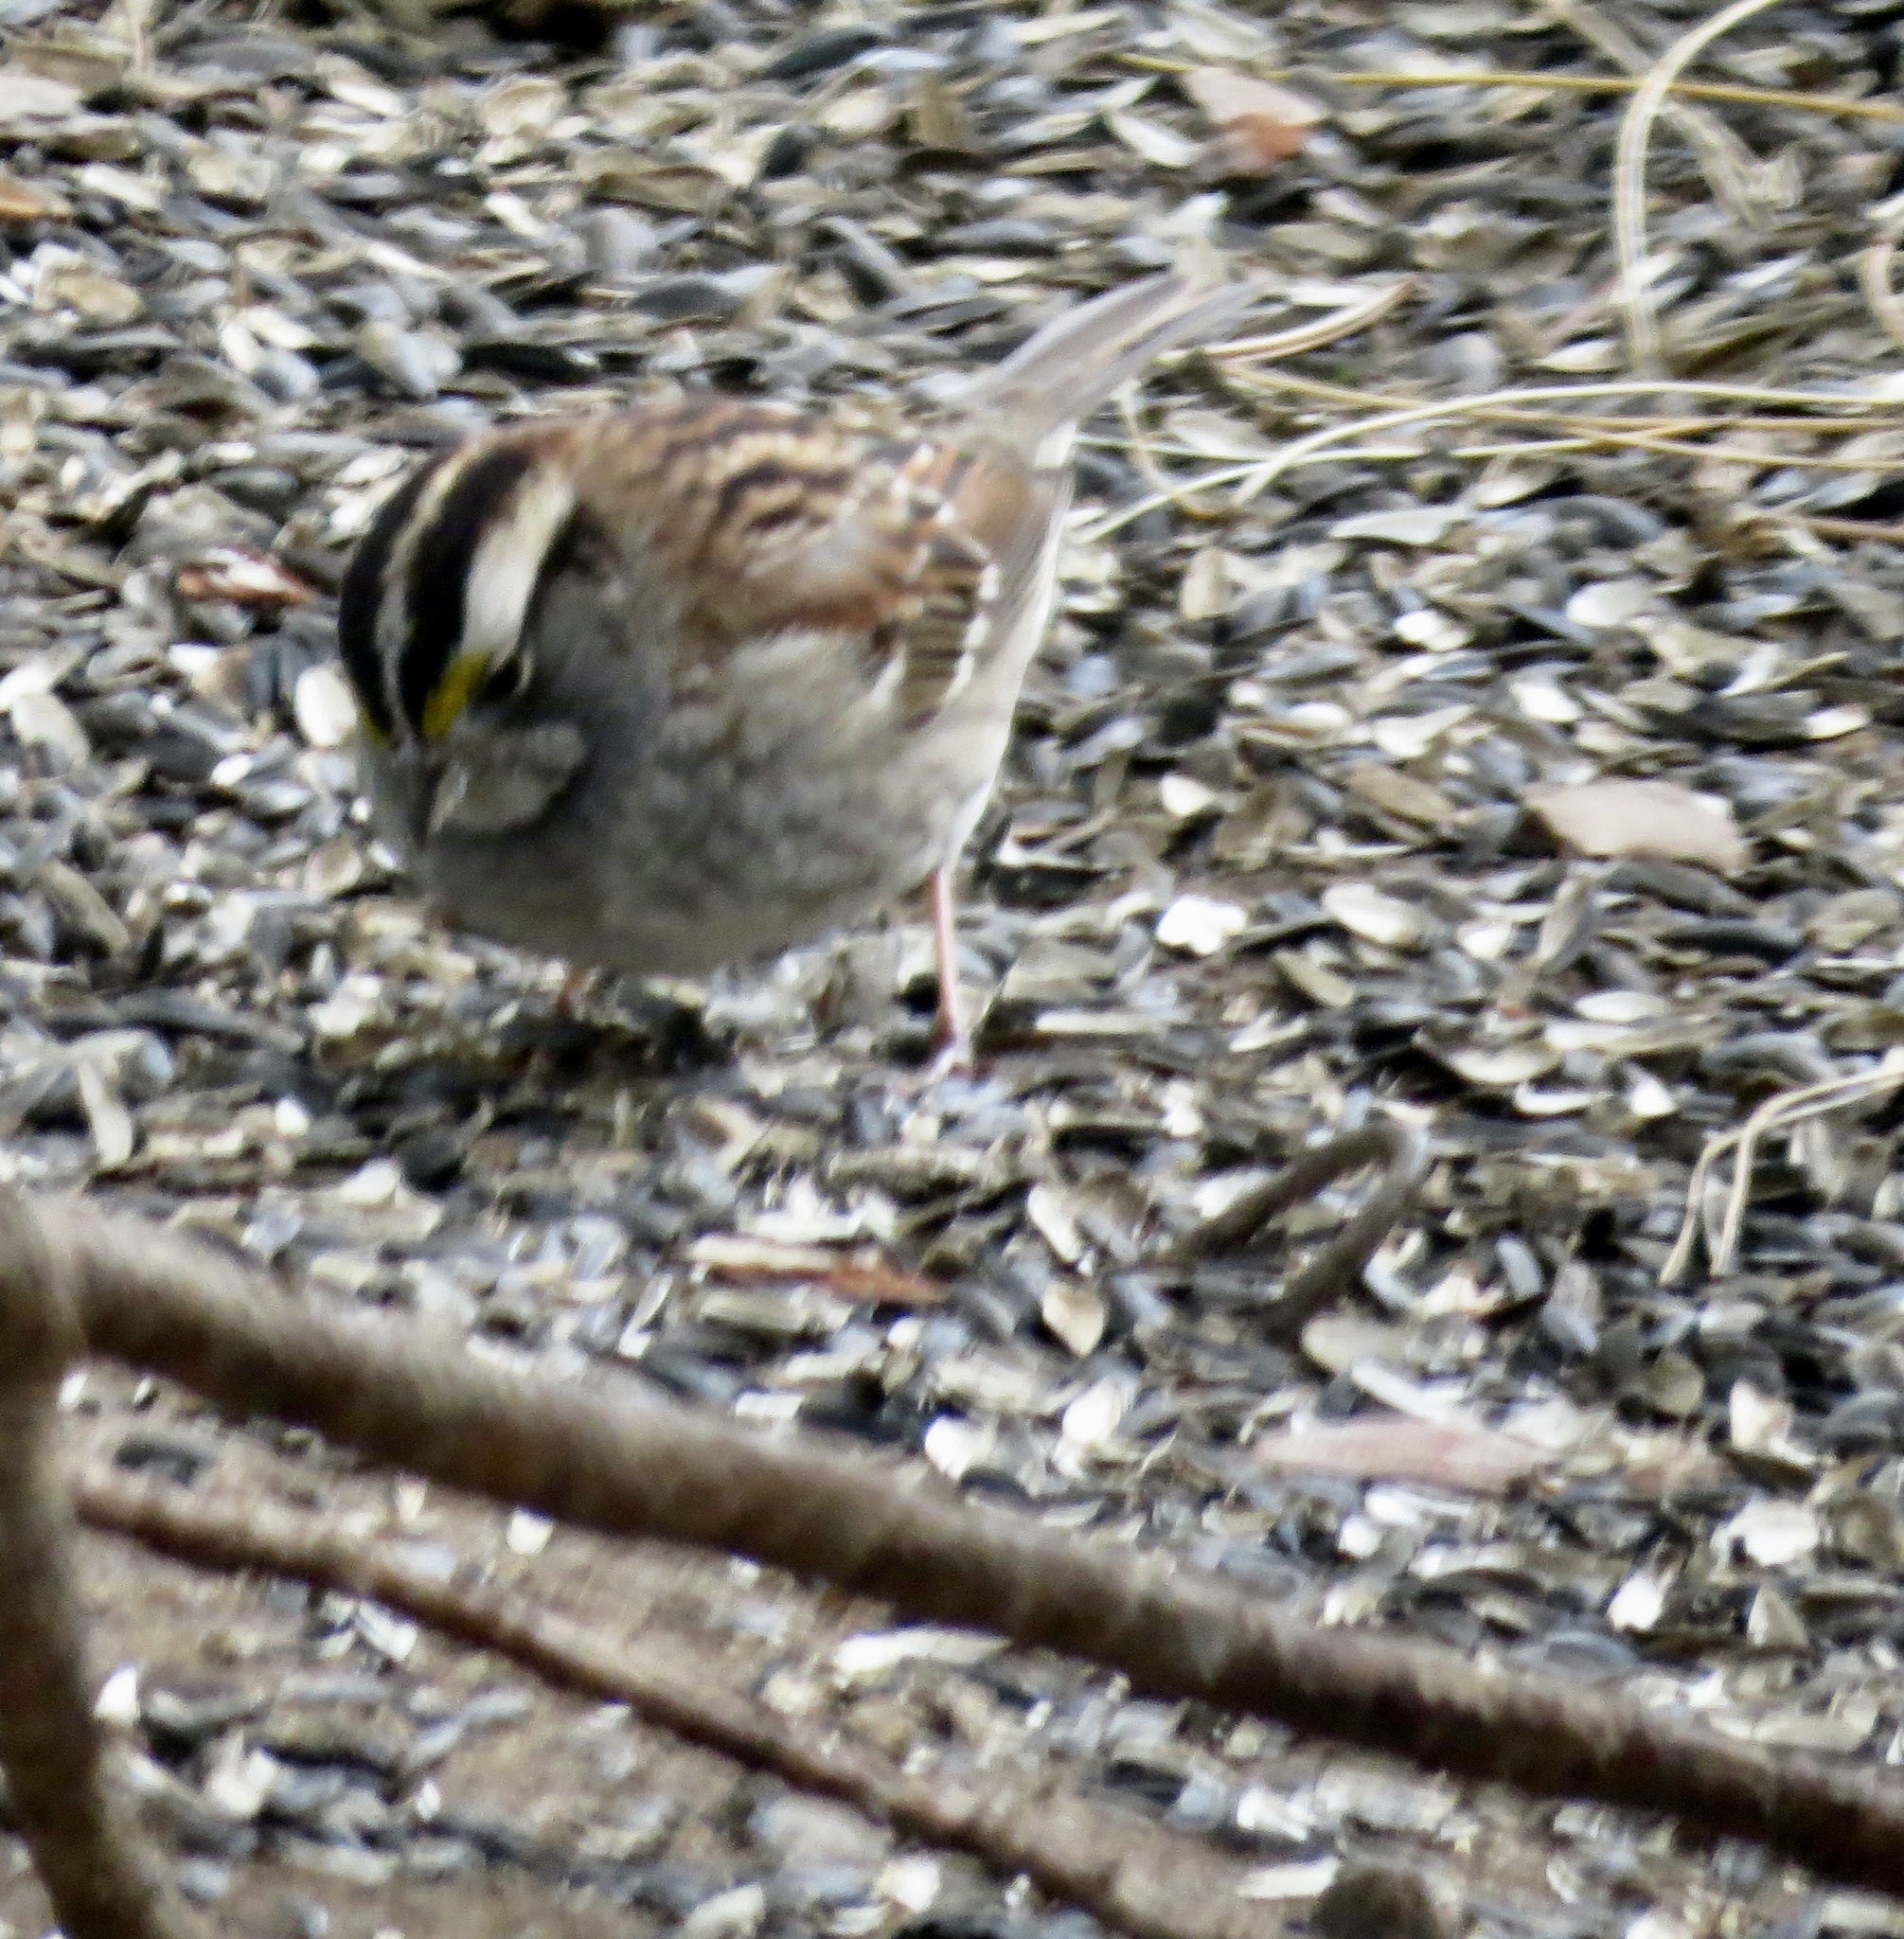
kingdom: Animalia
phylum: Chordata
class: Aves
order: Passeriformes
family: Passerellidae
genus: Zonotrichia
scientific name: Zonotrichia albicollis
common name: White-throated sparrow
